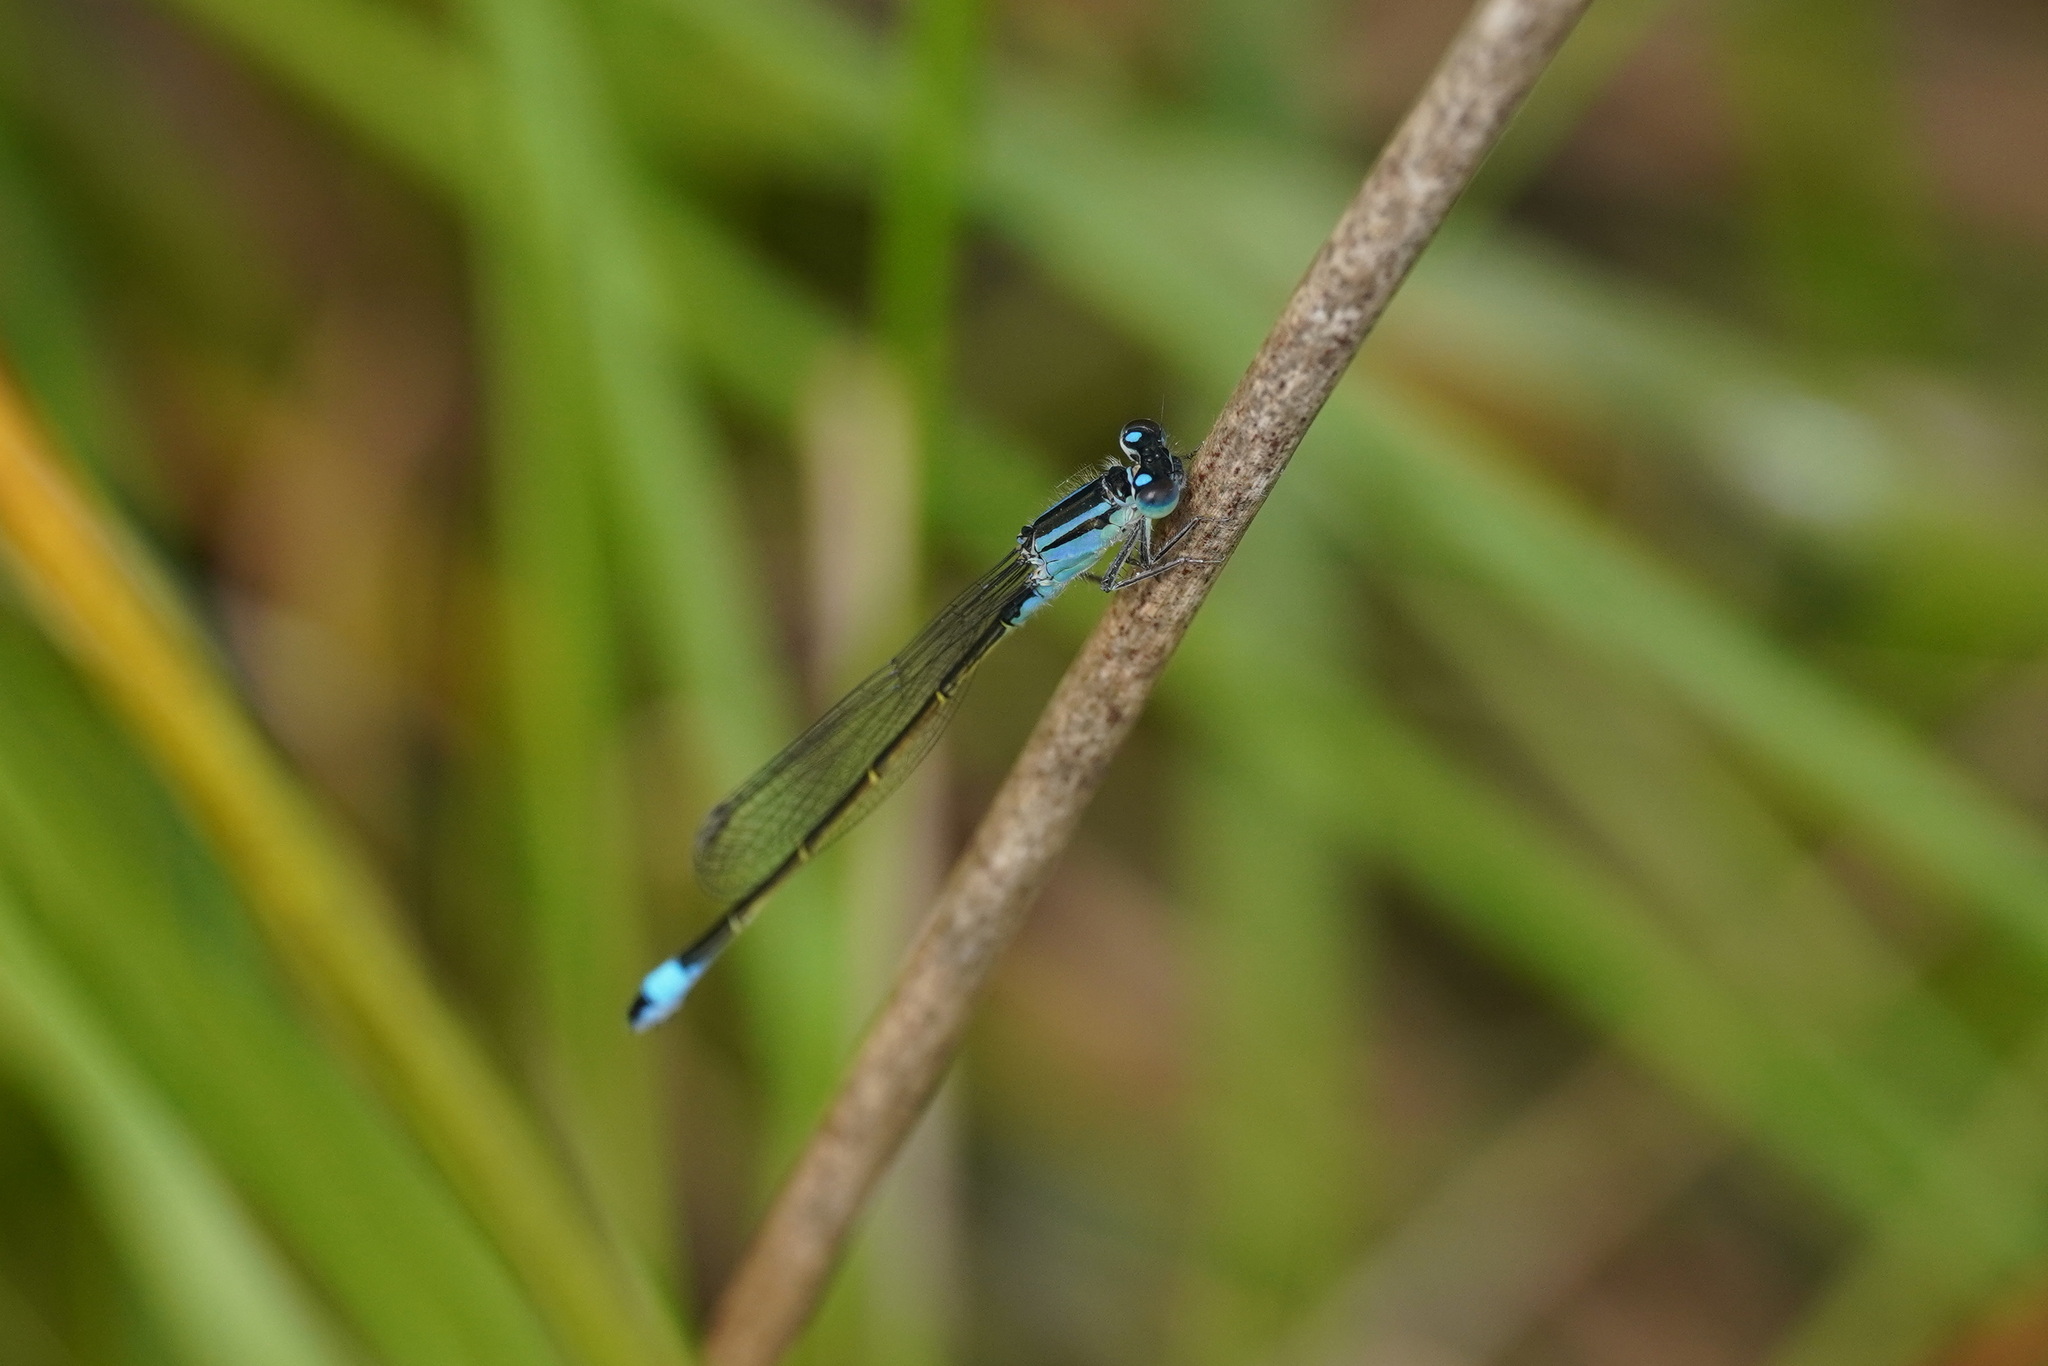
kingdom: Animalia
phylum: Arthropoda
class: Insecta
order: Odonata
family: Coenagrionidae
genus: Ischnura
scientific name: Ischnura elegans
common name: Blue-tailed damselfly
